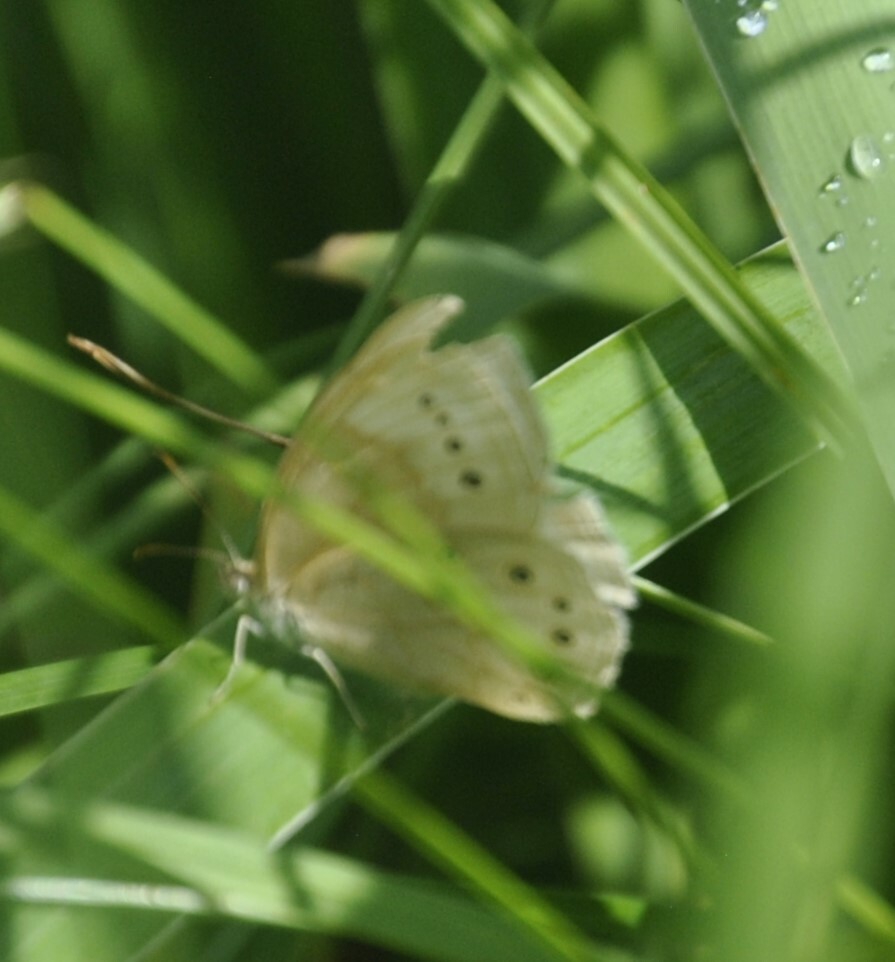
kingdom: Animalia
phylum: Arthropoda
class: Insecta
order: Lepidoptera
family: Nymphalidae
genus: Lethe
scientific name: Lethe
